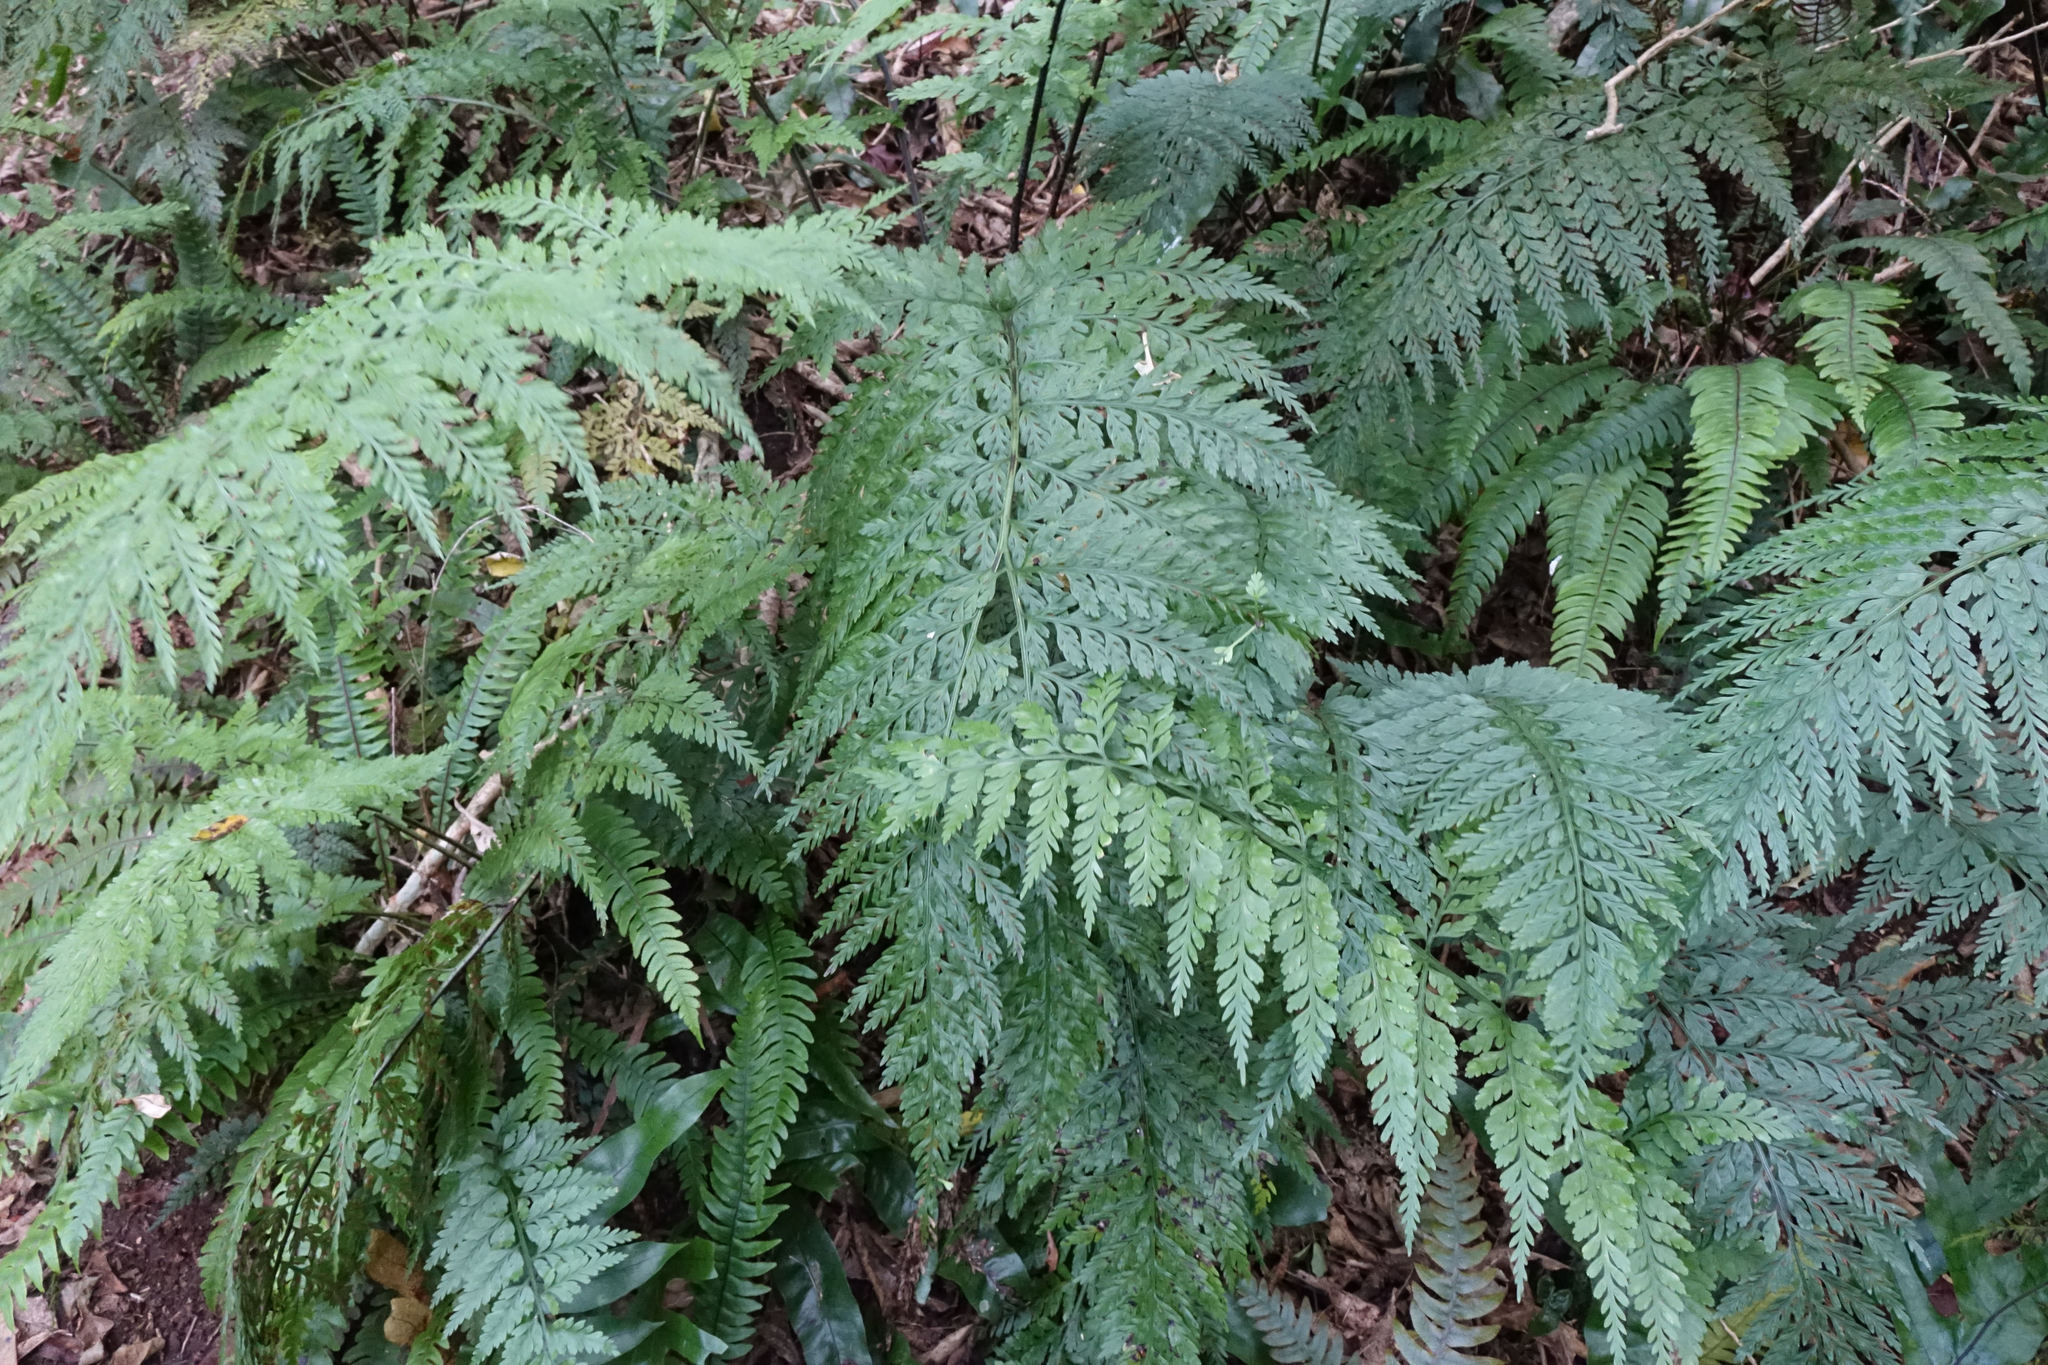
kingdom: Plantae
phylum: Tracheophyta
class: Polypodiopsida
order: Polypodiales
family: Aspleniaceae
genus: Asplenium
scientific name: Asplenium
